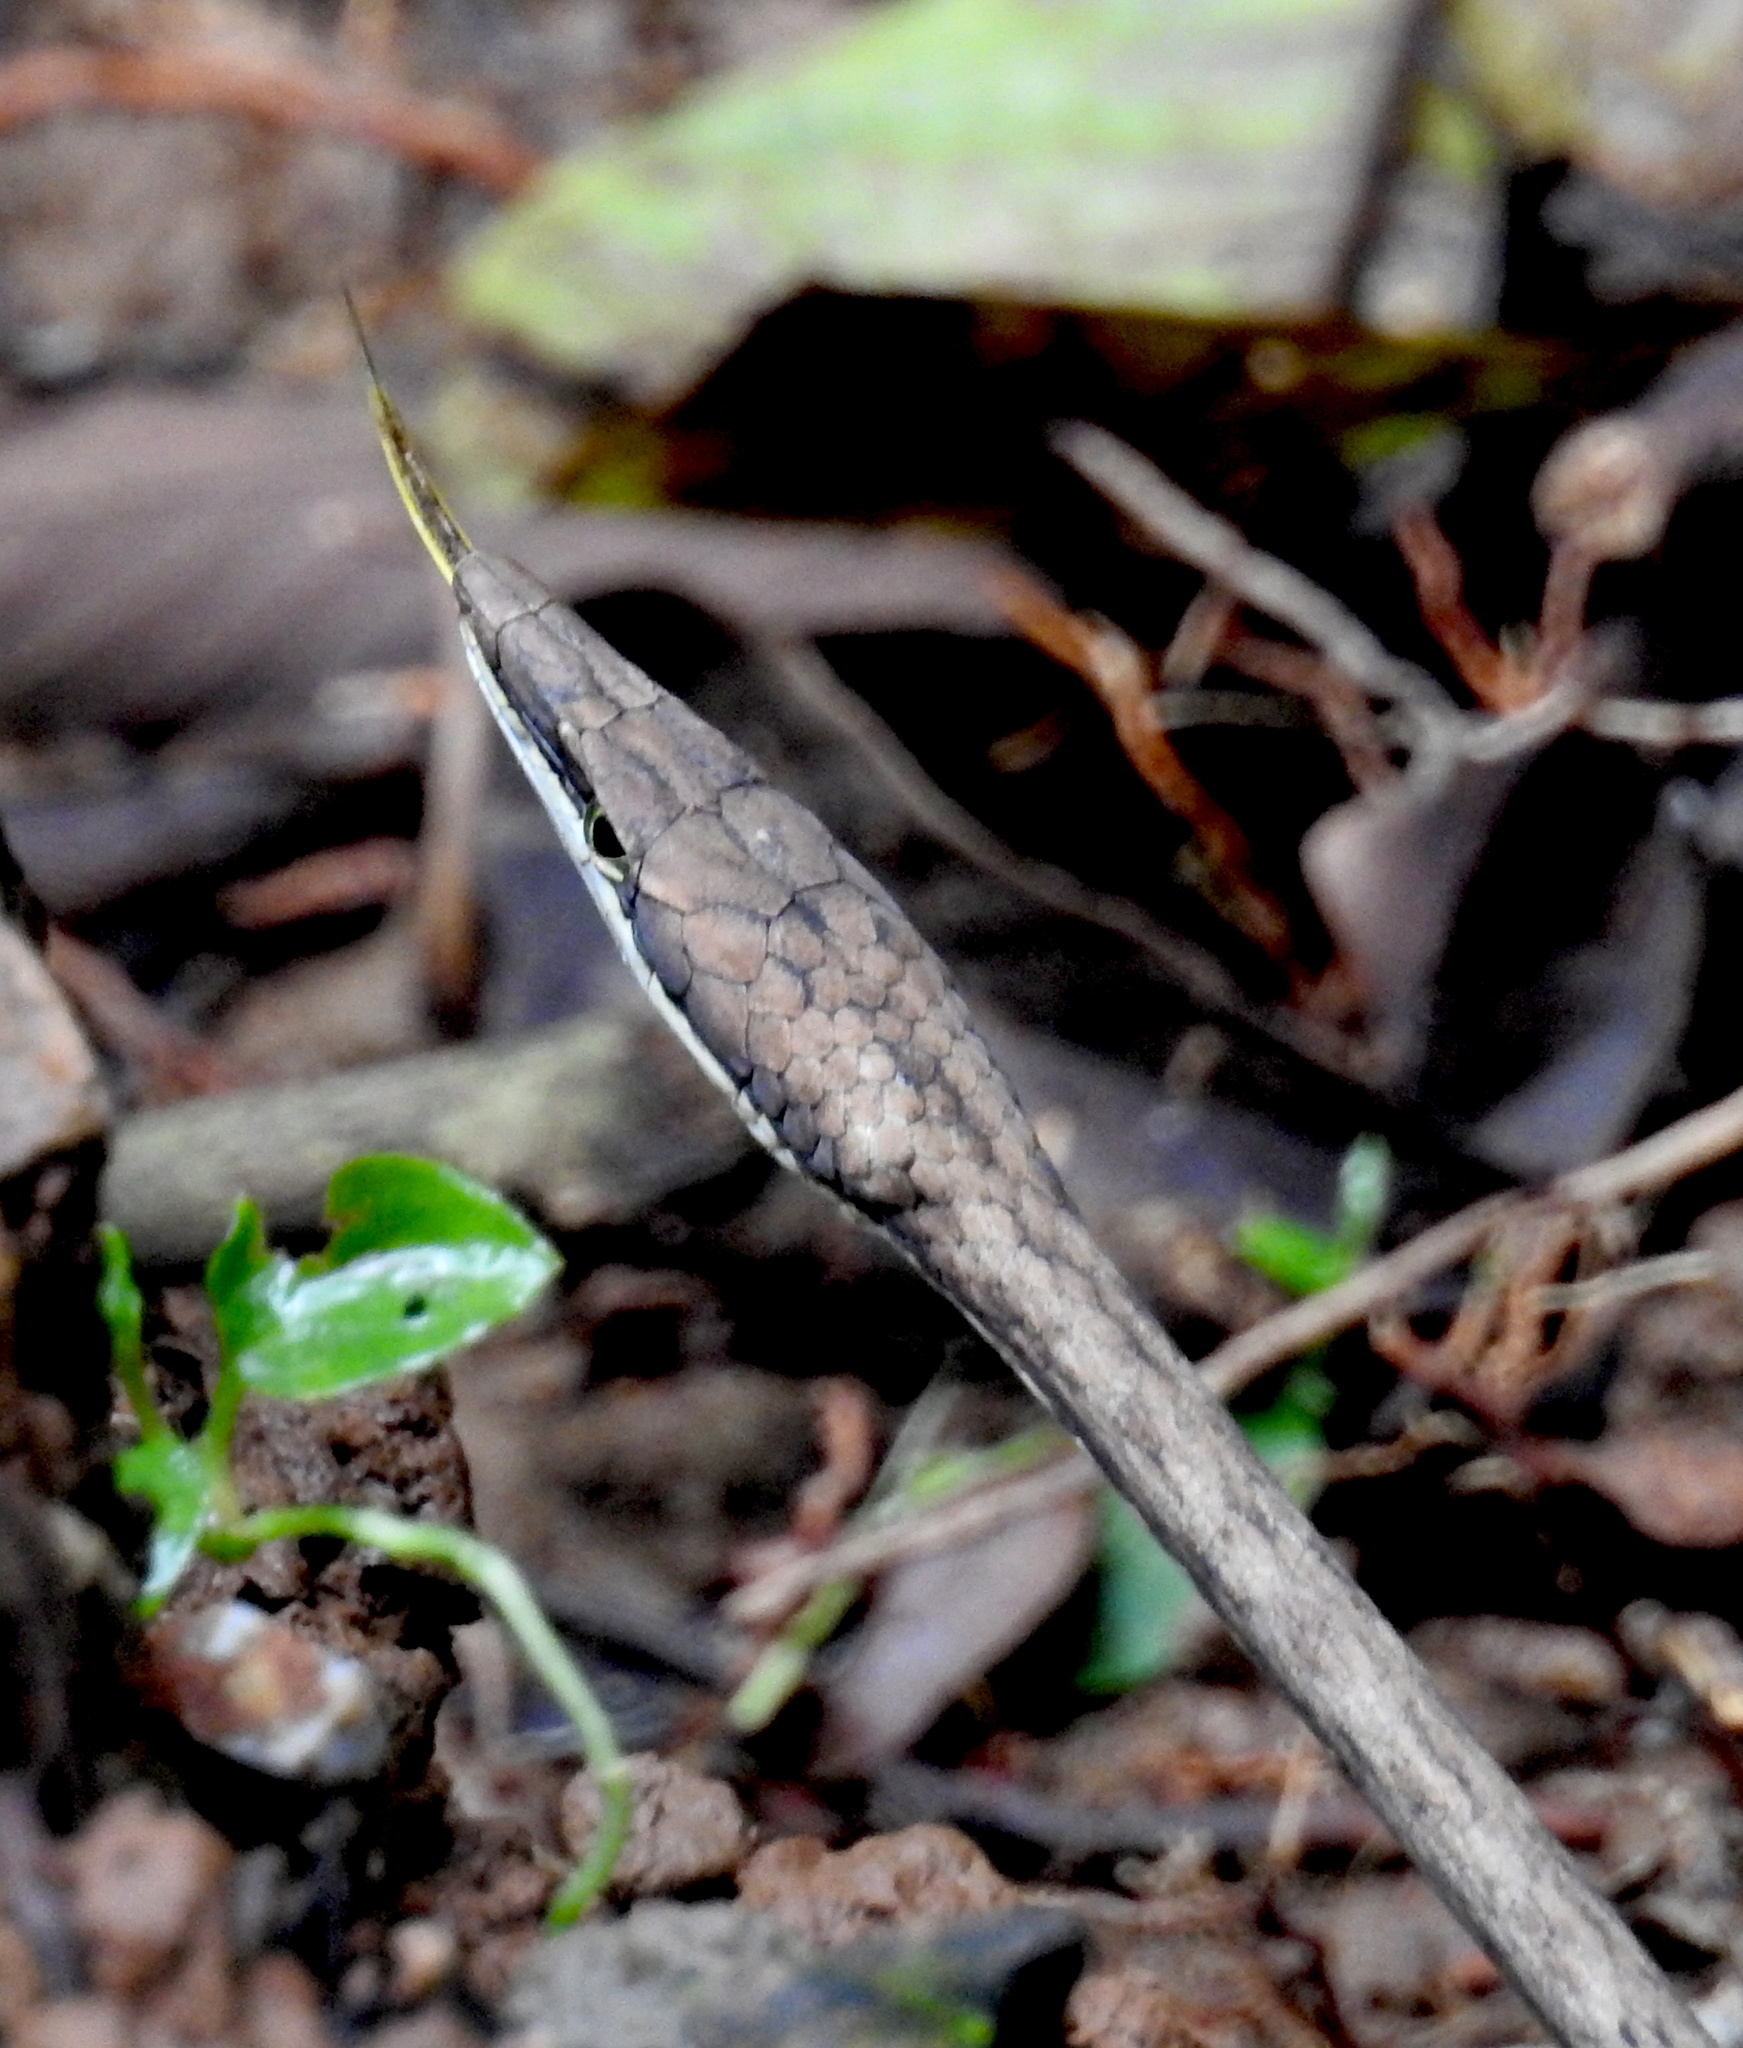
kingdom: Animalia
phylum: Chordata
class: Squamata
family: Colubridae
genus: Oxybelis
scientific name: Oxybelis vittatus
